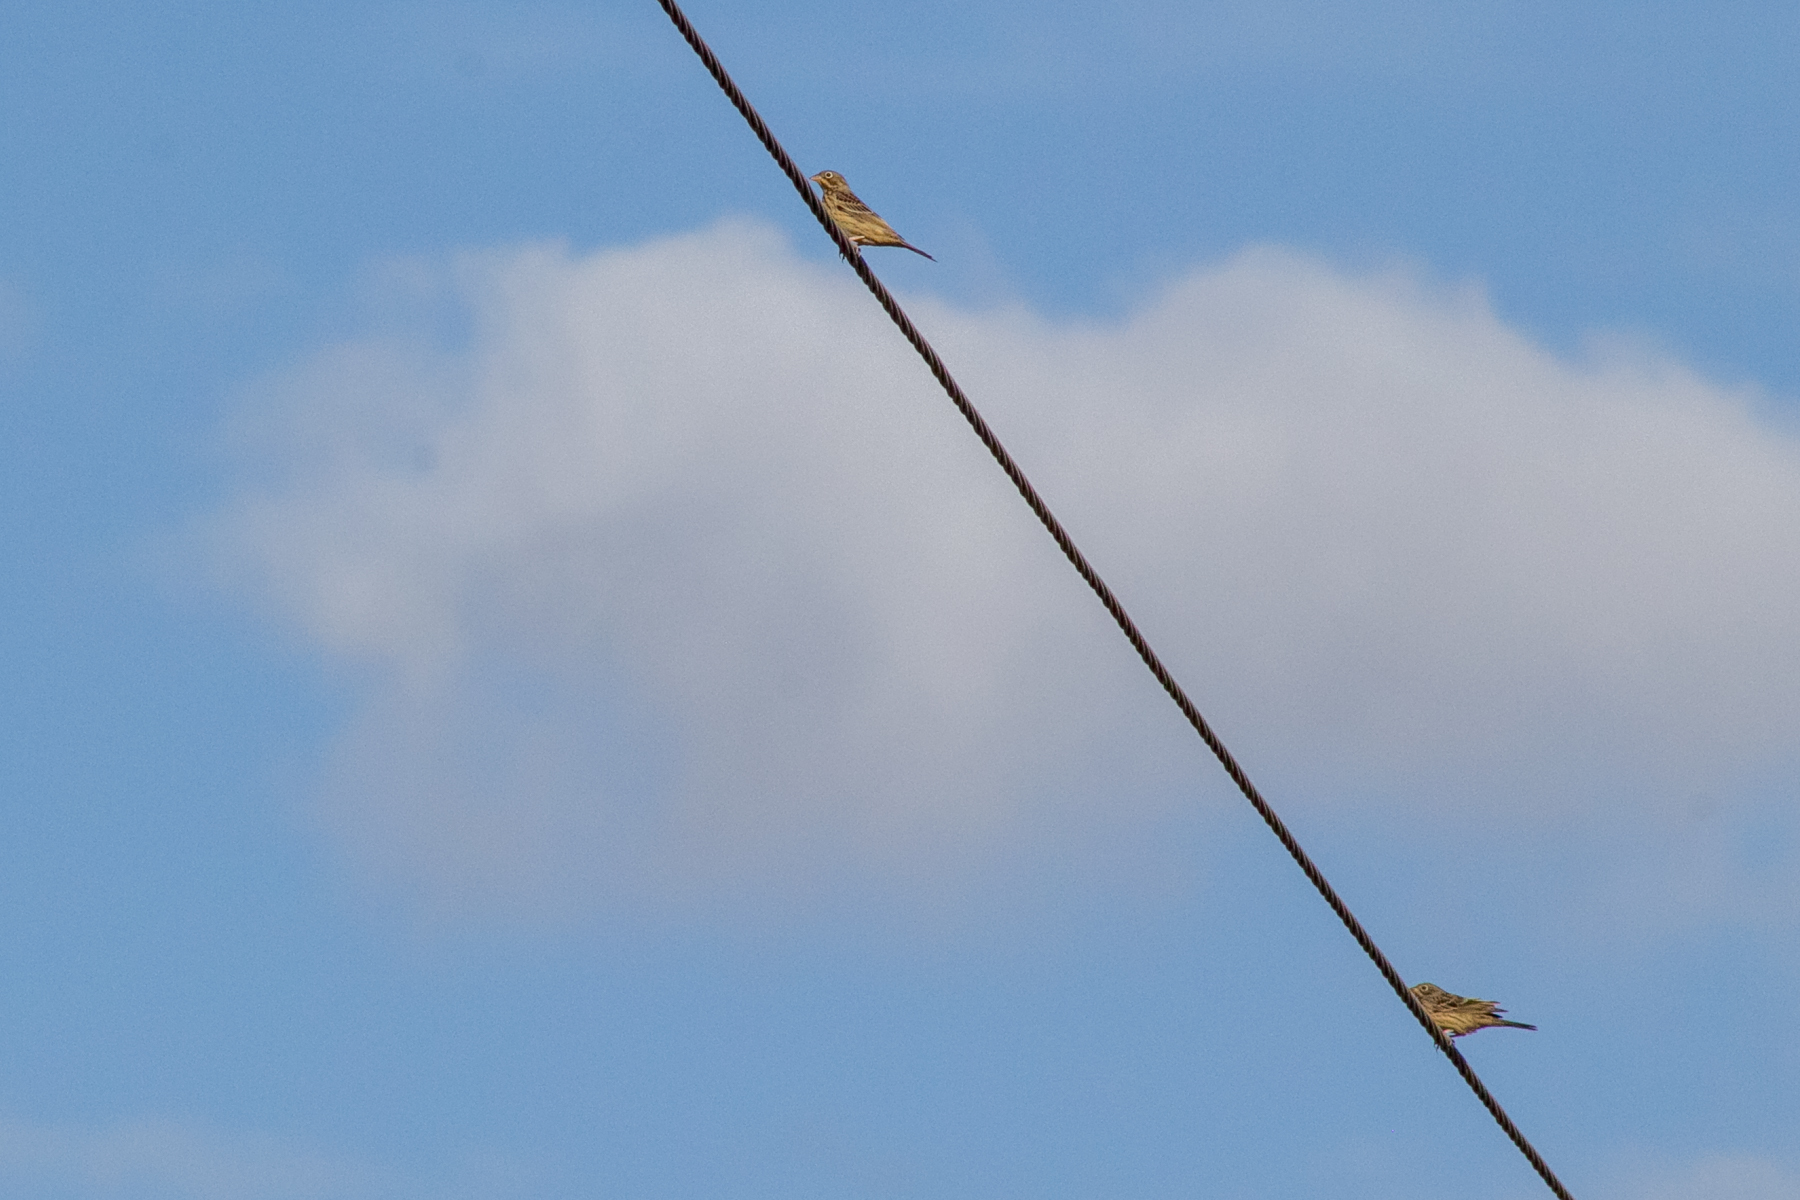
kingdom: Animalia
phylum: Chordata
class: Aves
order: Passeriformes
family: Emberizidae
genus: Emberiza
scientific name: Emberiza hortulana
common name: Ortolan bunting
